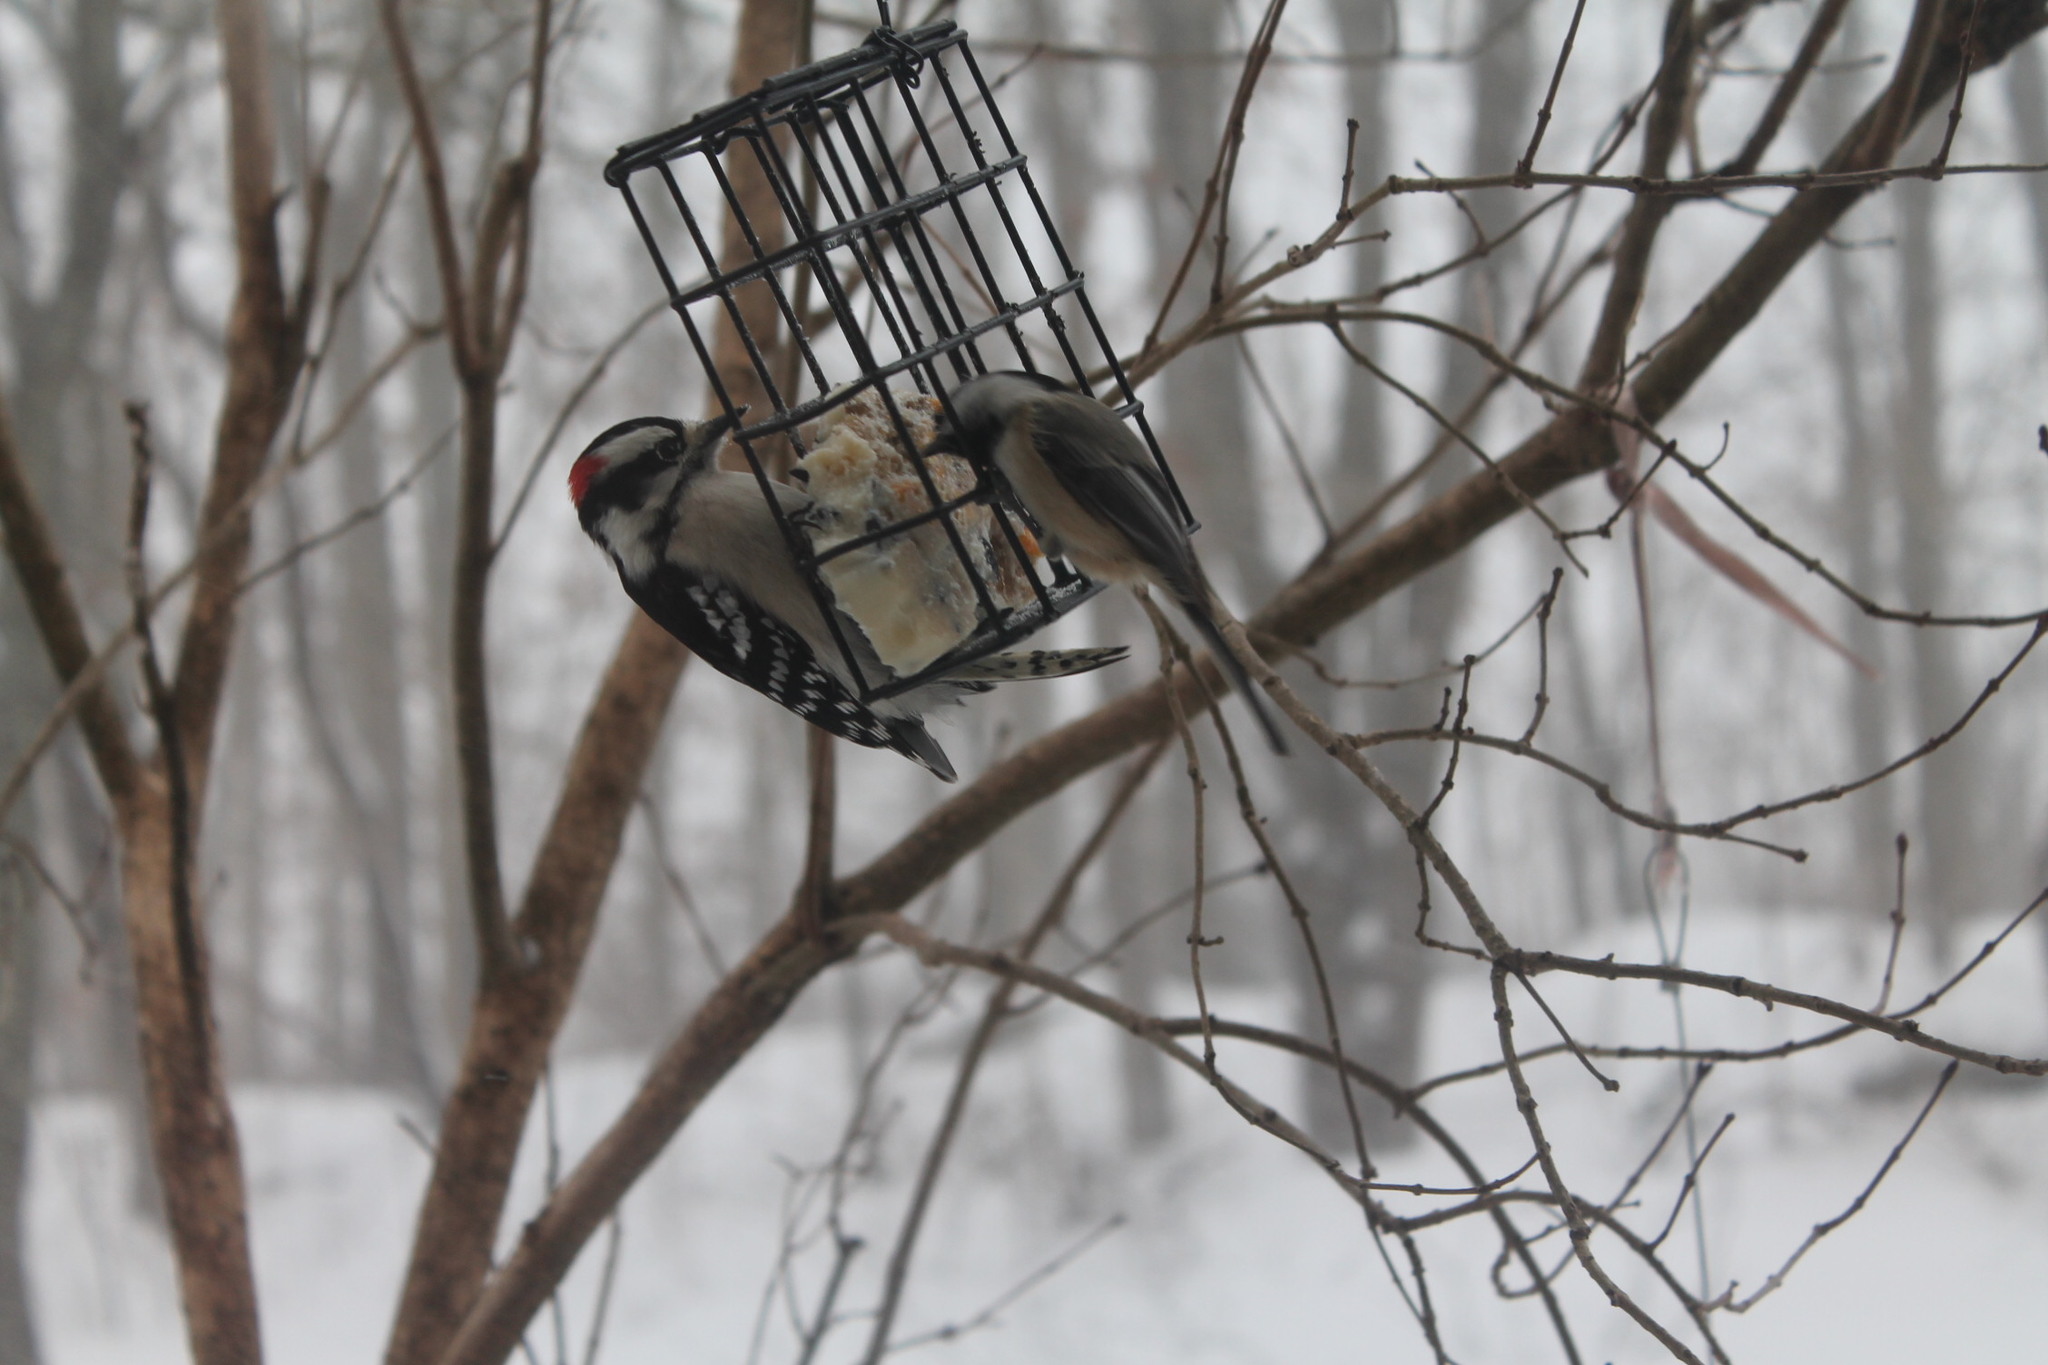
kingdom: Animalia
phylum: Chordata
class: Aves
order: Piciformes
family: Picidae
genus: Dryobates
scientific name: Dryobates pubescens
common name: Downy woodpecker
